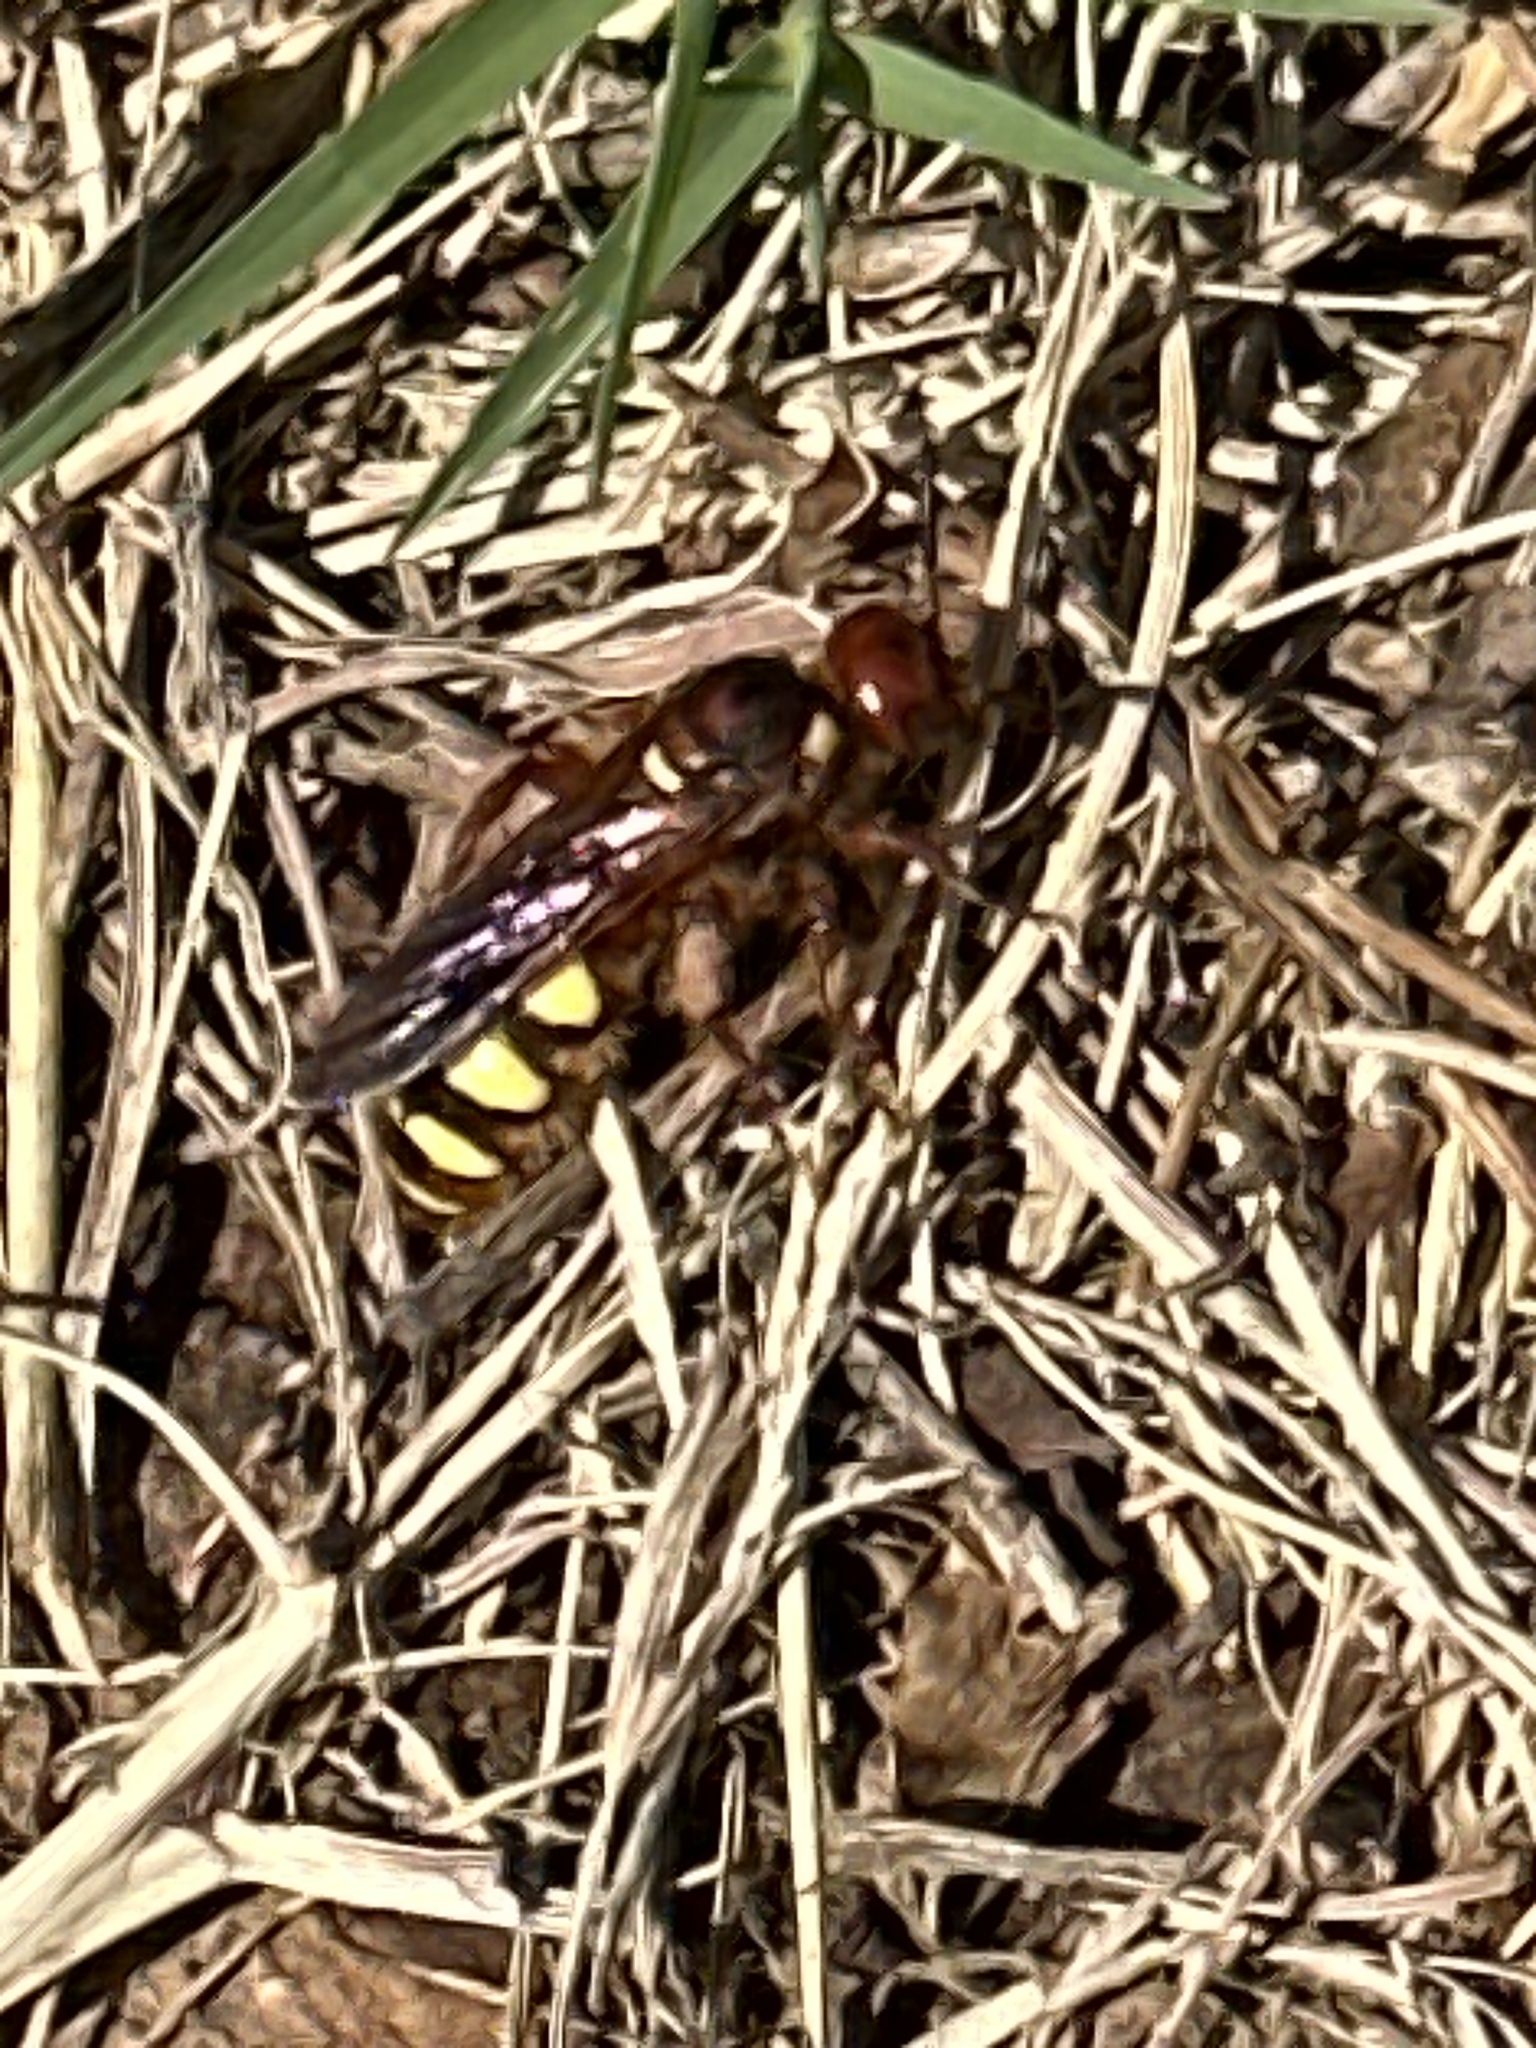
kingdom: Animalia
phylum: Arthropoda
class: Insecta
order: Hymenoptera
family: Scoliidae
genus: Colpa
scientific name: Colpa octomaculata
